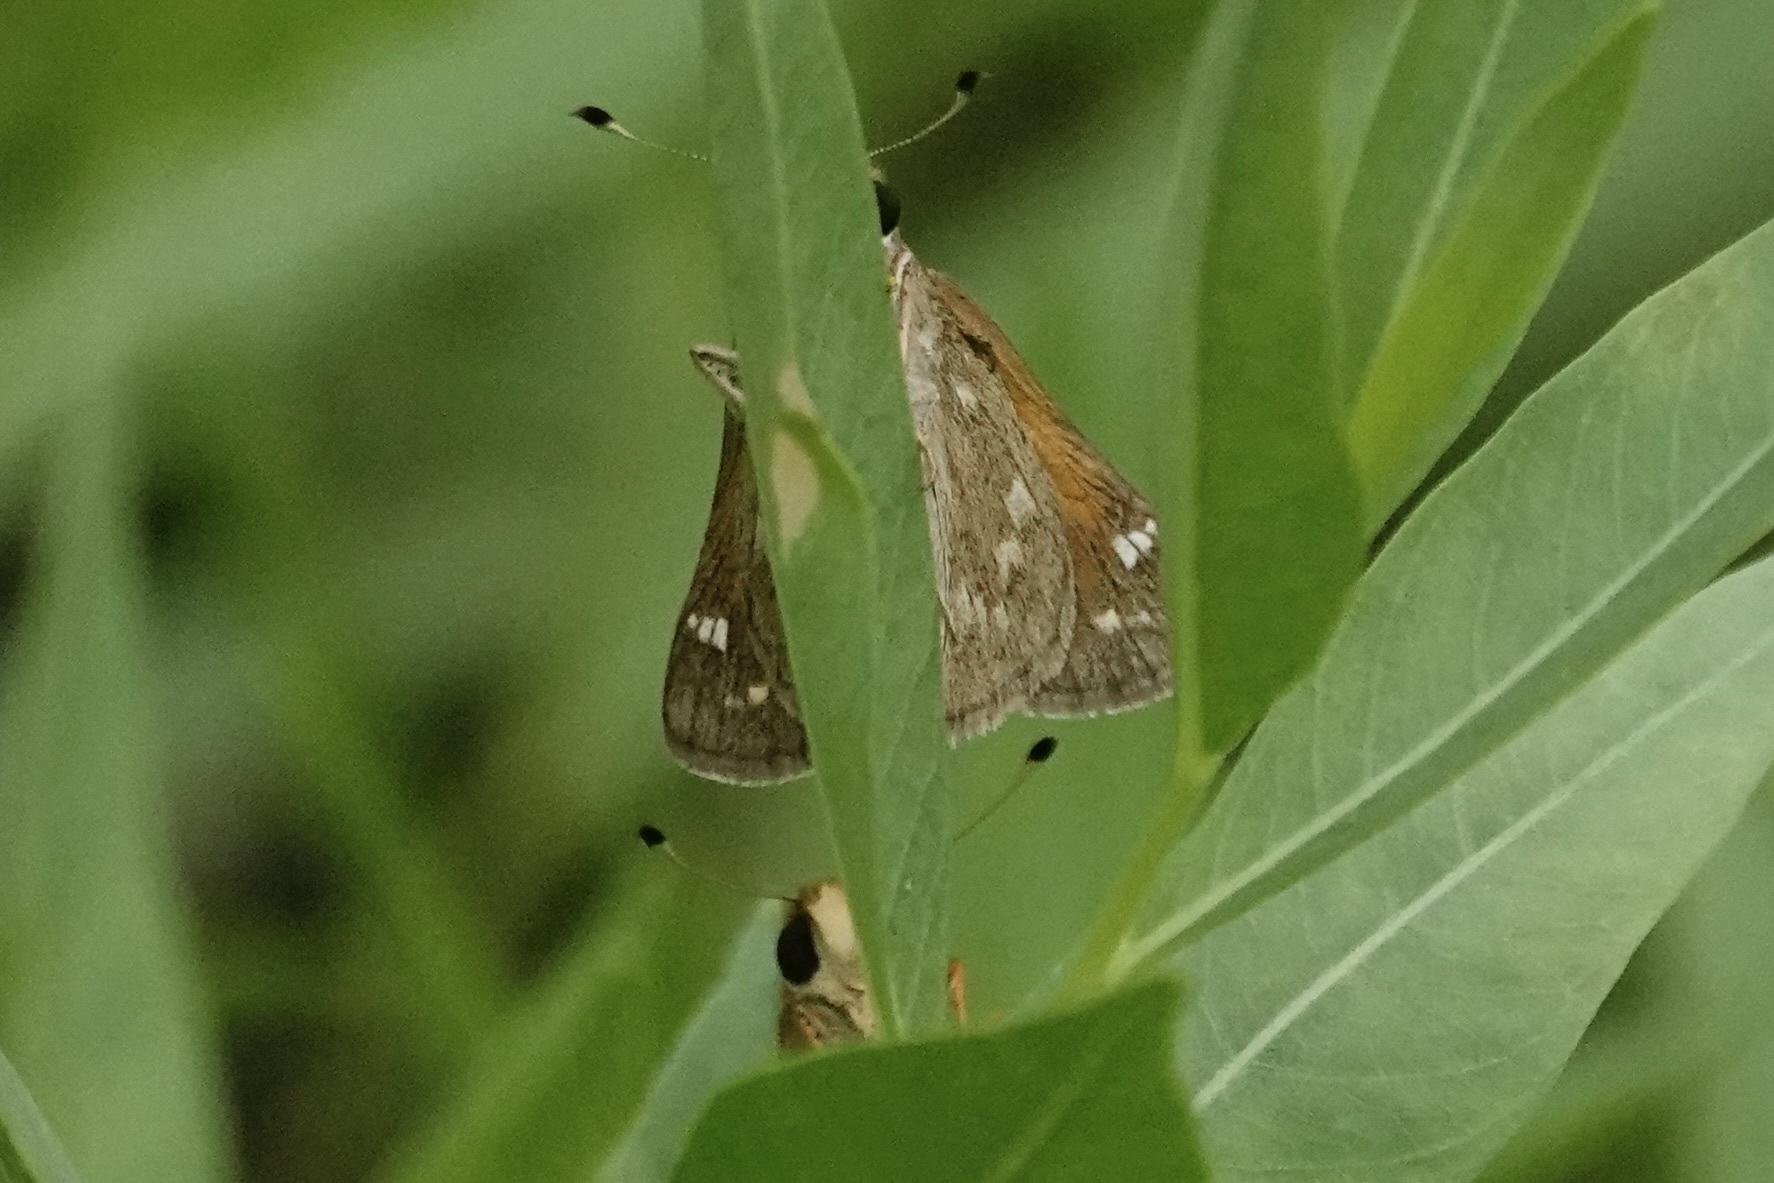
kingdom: Animalia
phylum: Arthropoda
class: Insecta
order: Lepidoptera
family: Hesperiidae
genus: Atalopedes
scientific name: Atalopedes
